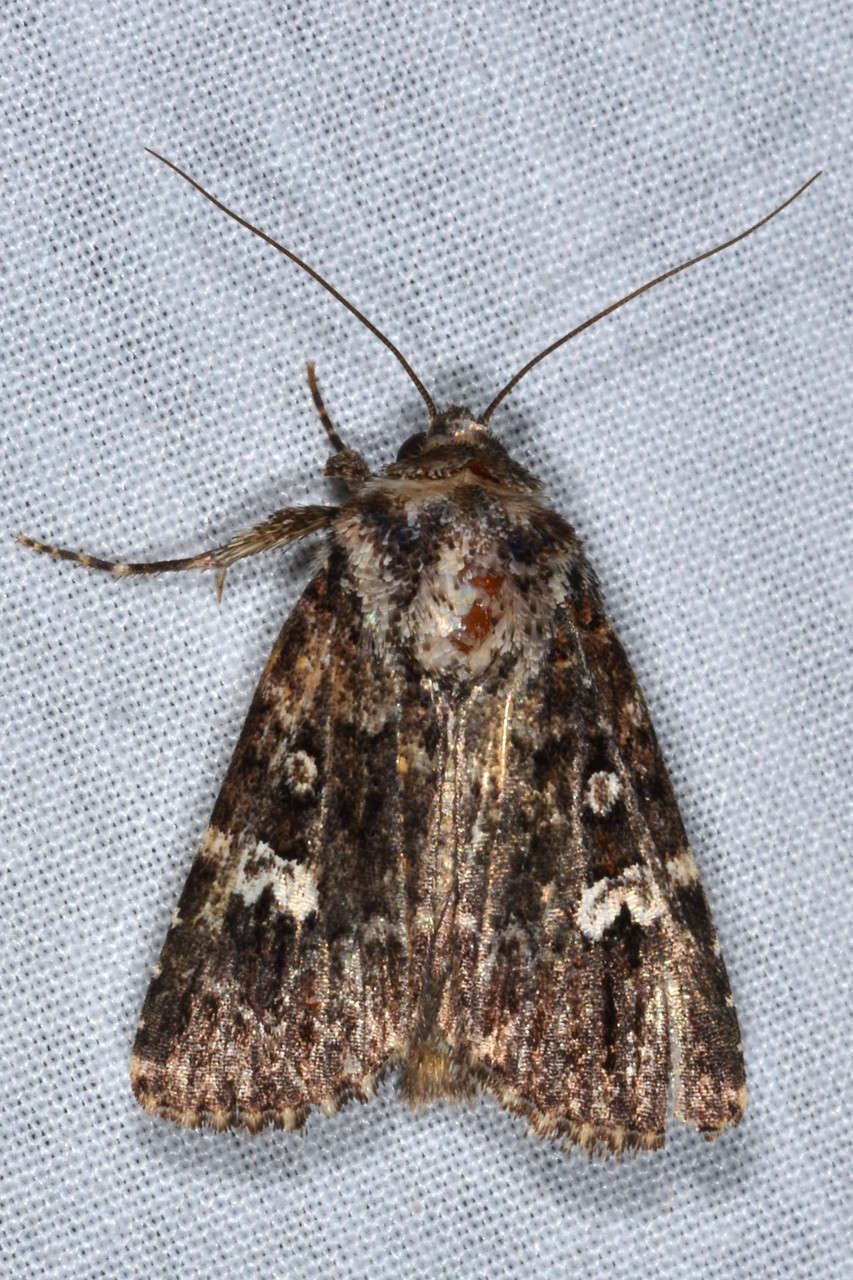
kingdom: Animalia
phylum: Arthropoda
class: Insecta
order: Lepidoptera
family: Noctuidae
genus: Ectopatria
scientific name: Ectopatria horologa
